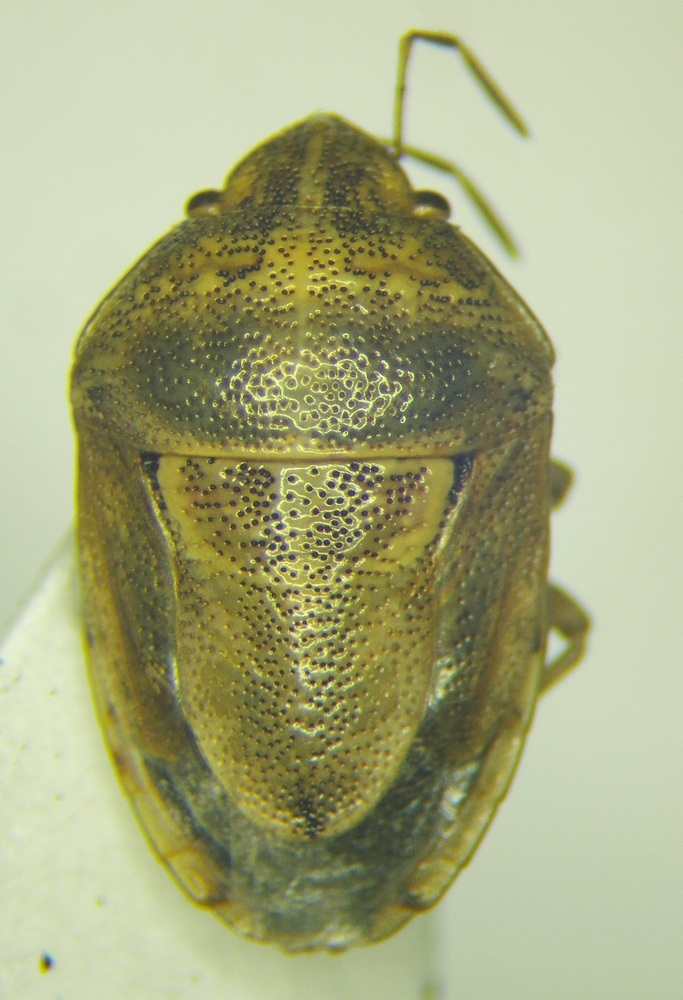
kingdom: Animalia
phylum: Arthropoda
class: Insecta
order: Hemiptera
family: Pentatomidae
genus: Neottiglossa
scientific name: Neottiglossa leporina
